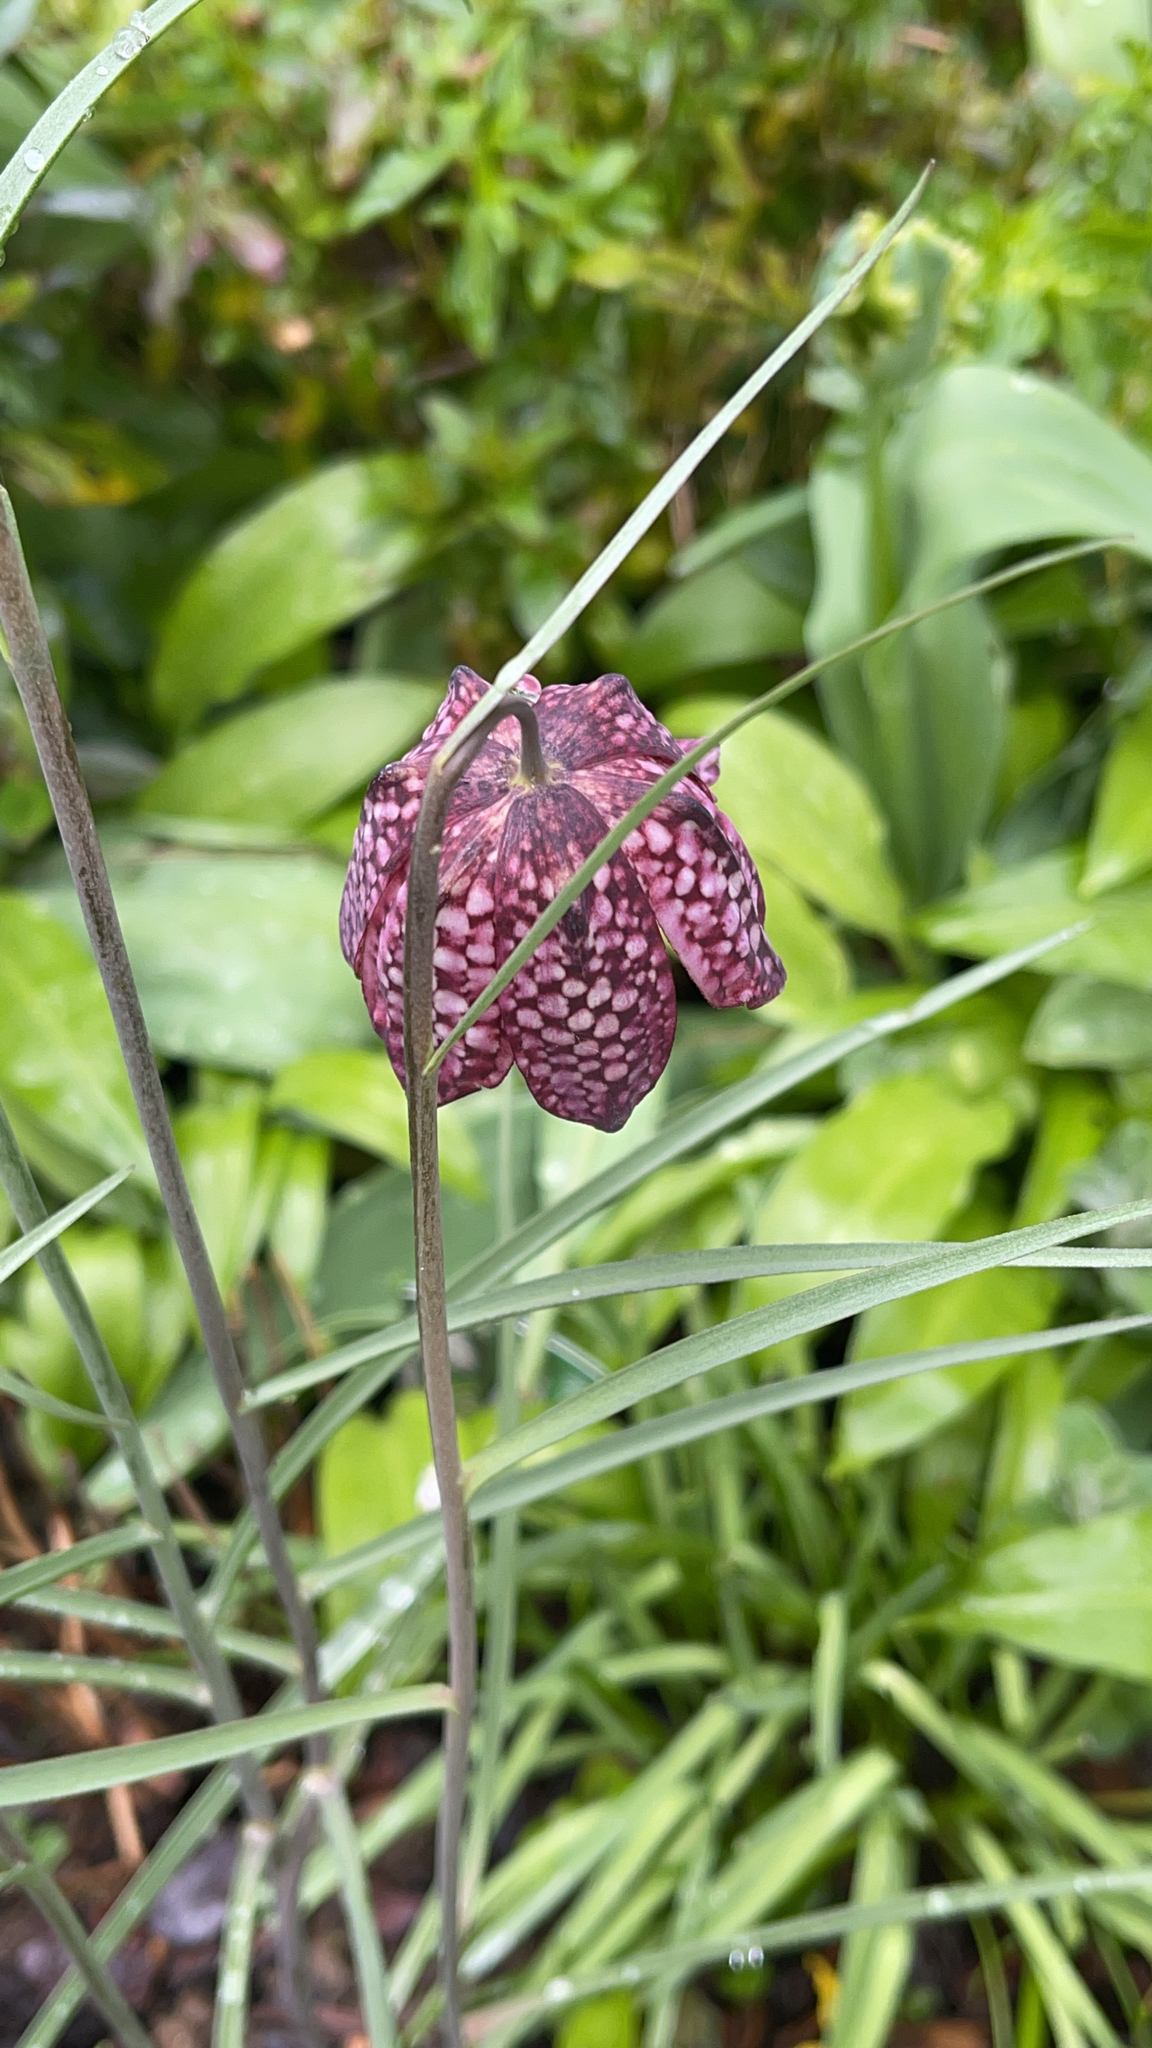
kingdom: Plantae
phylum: Tracheophyta
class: Liliopsida
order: Liliales
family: Liliaceae
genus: Fritillaria
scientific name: Fritillaria meleagris
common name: Fritillary
